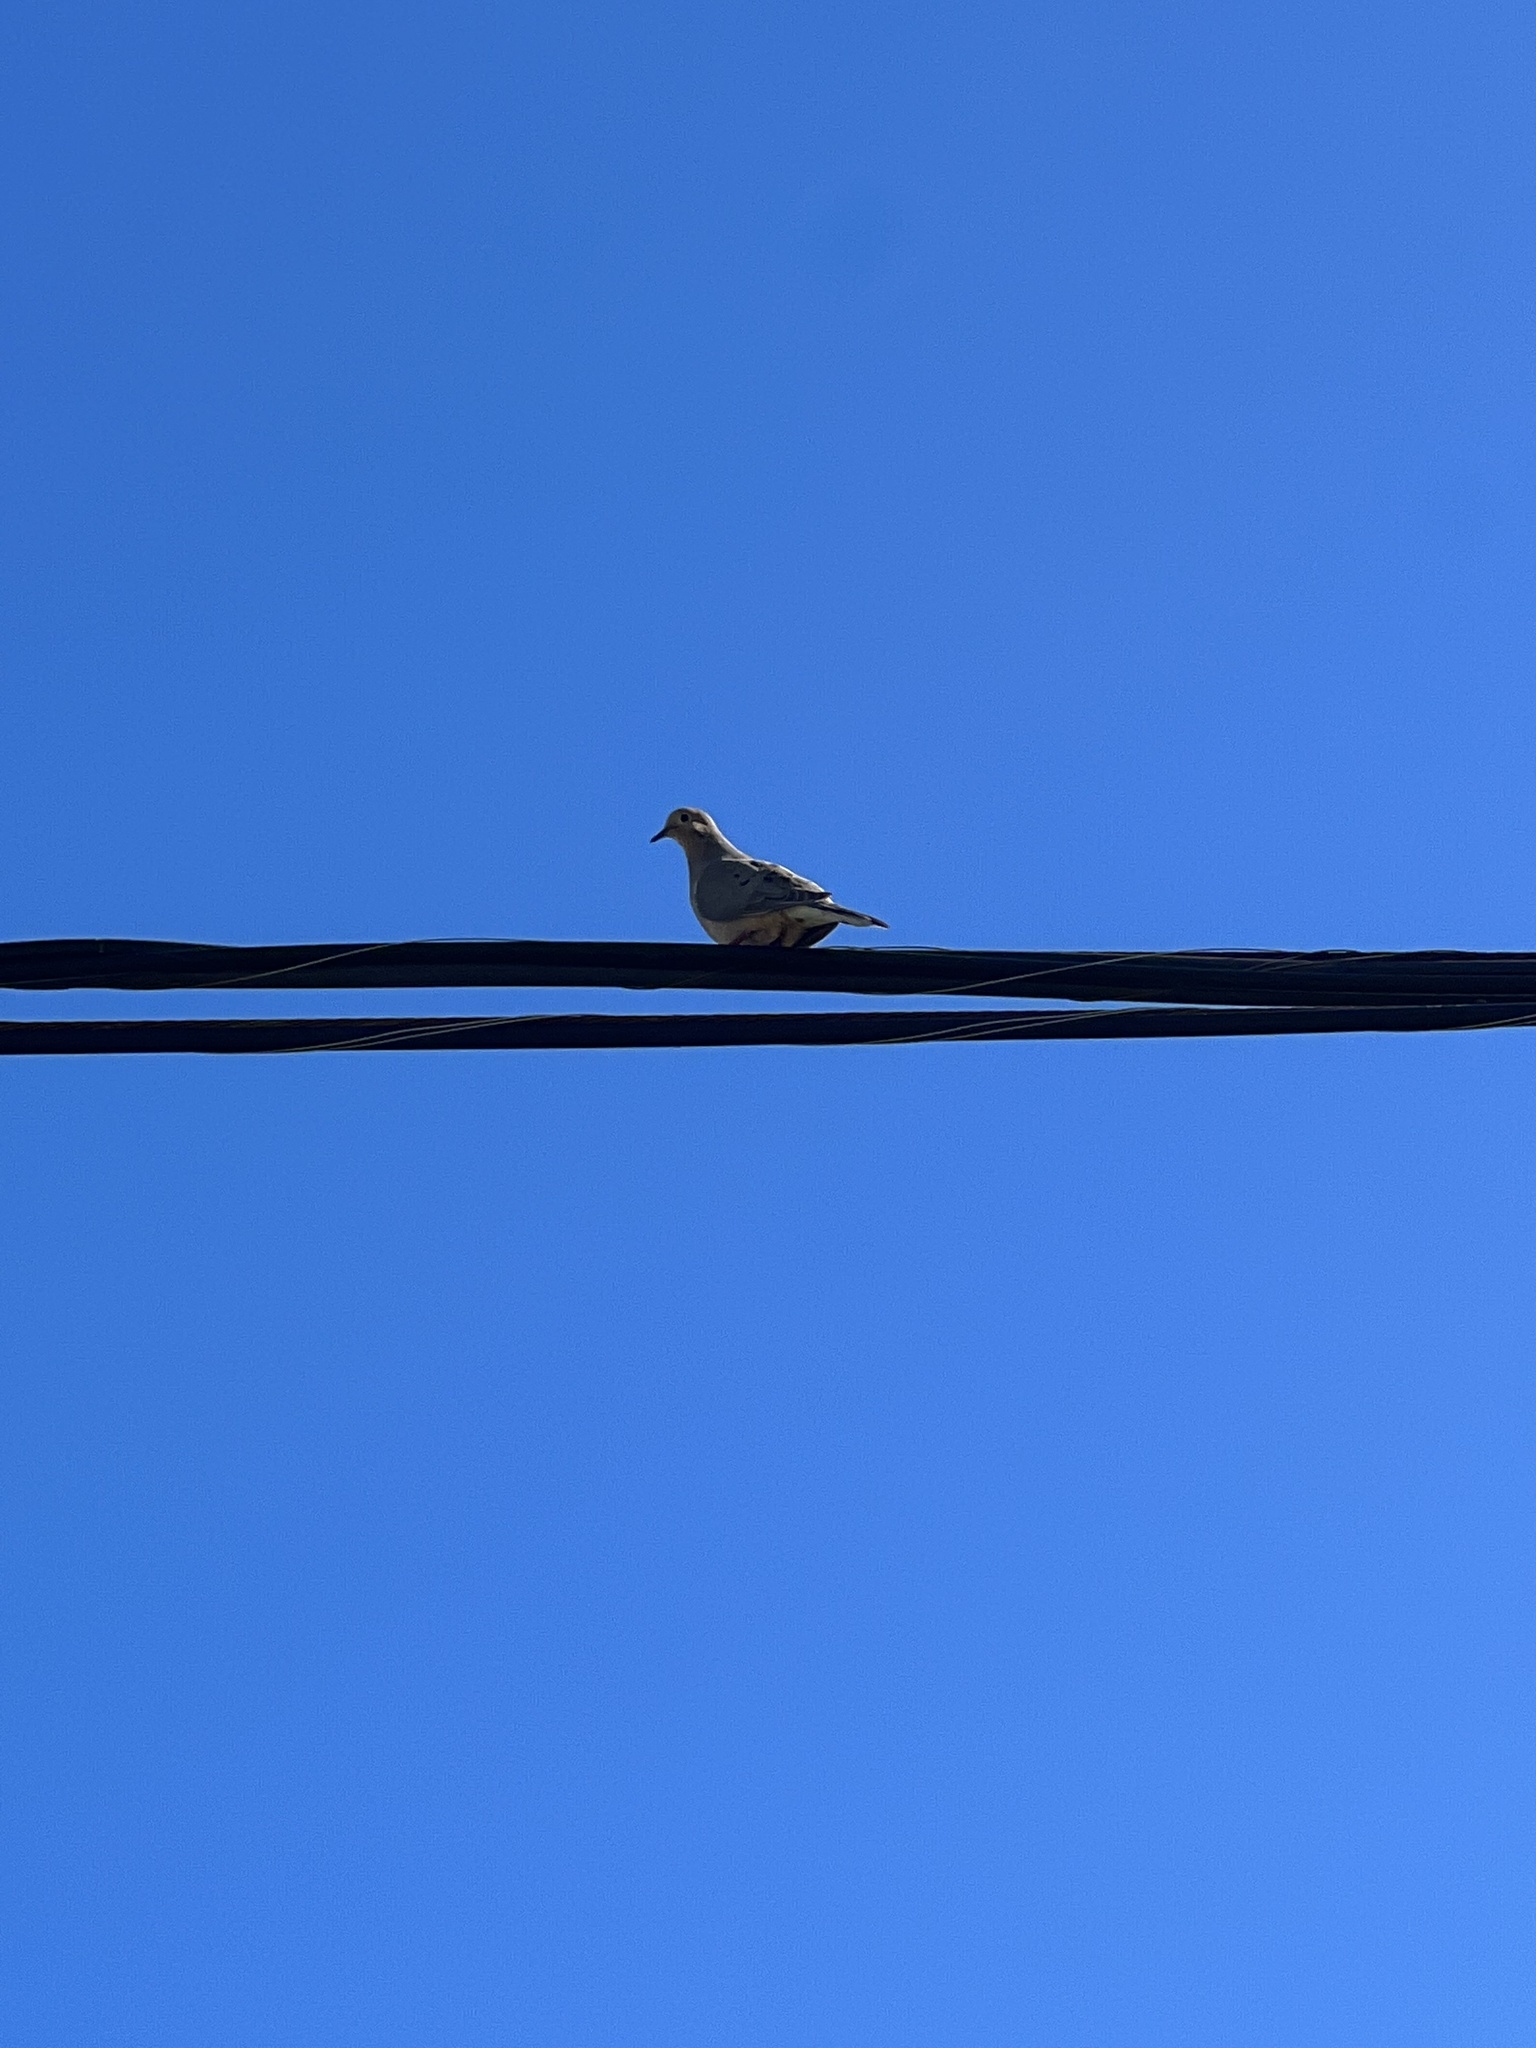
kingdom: Animalia
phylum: Chordata
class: Aves
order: Columbiformes
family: Columbidae
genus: Zenaida
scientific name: Zenaida macroura
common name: Mourning dove
